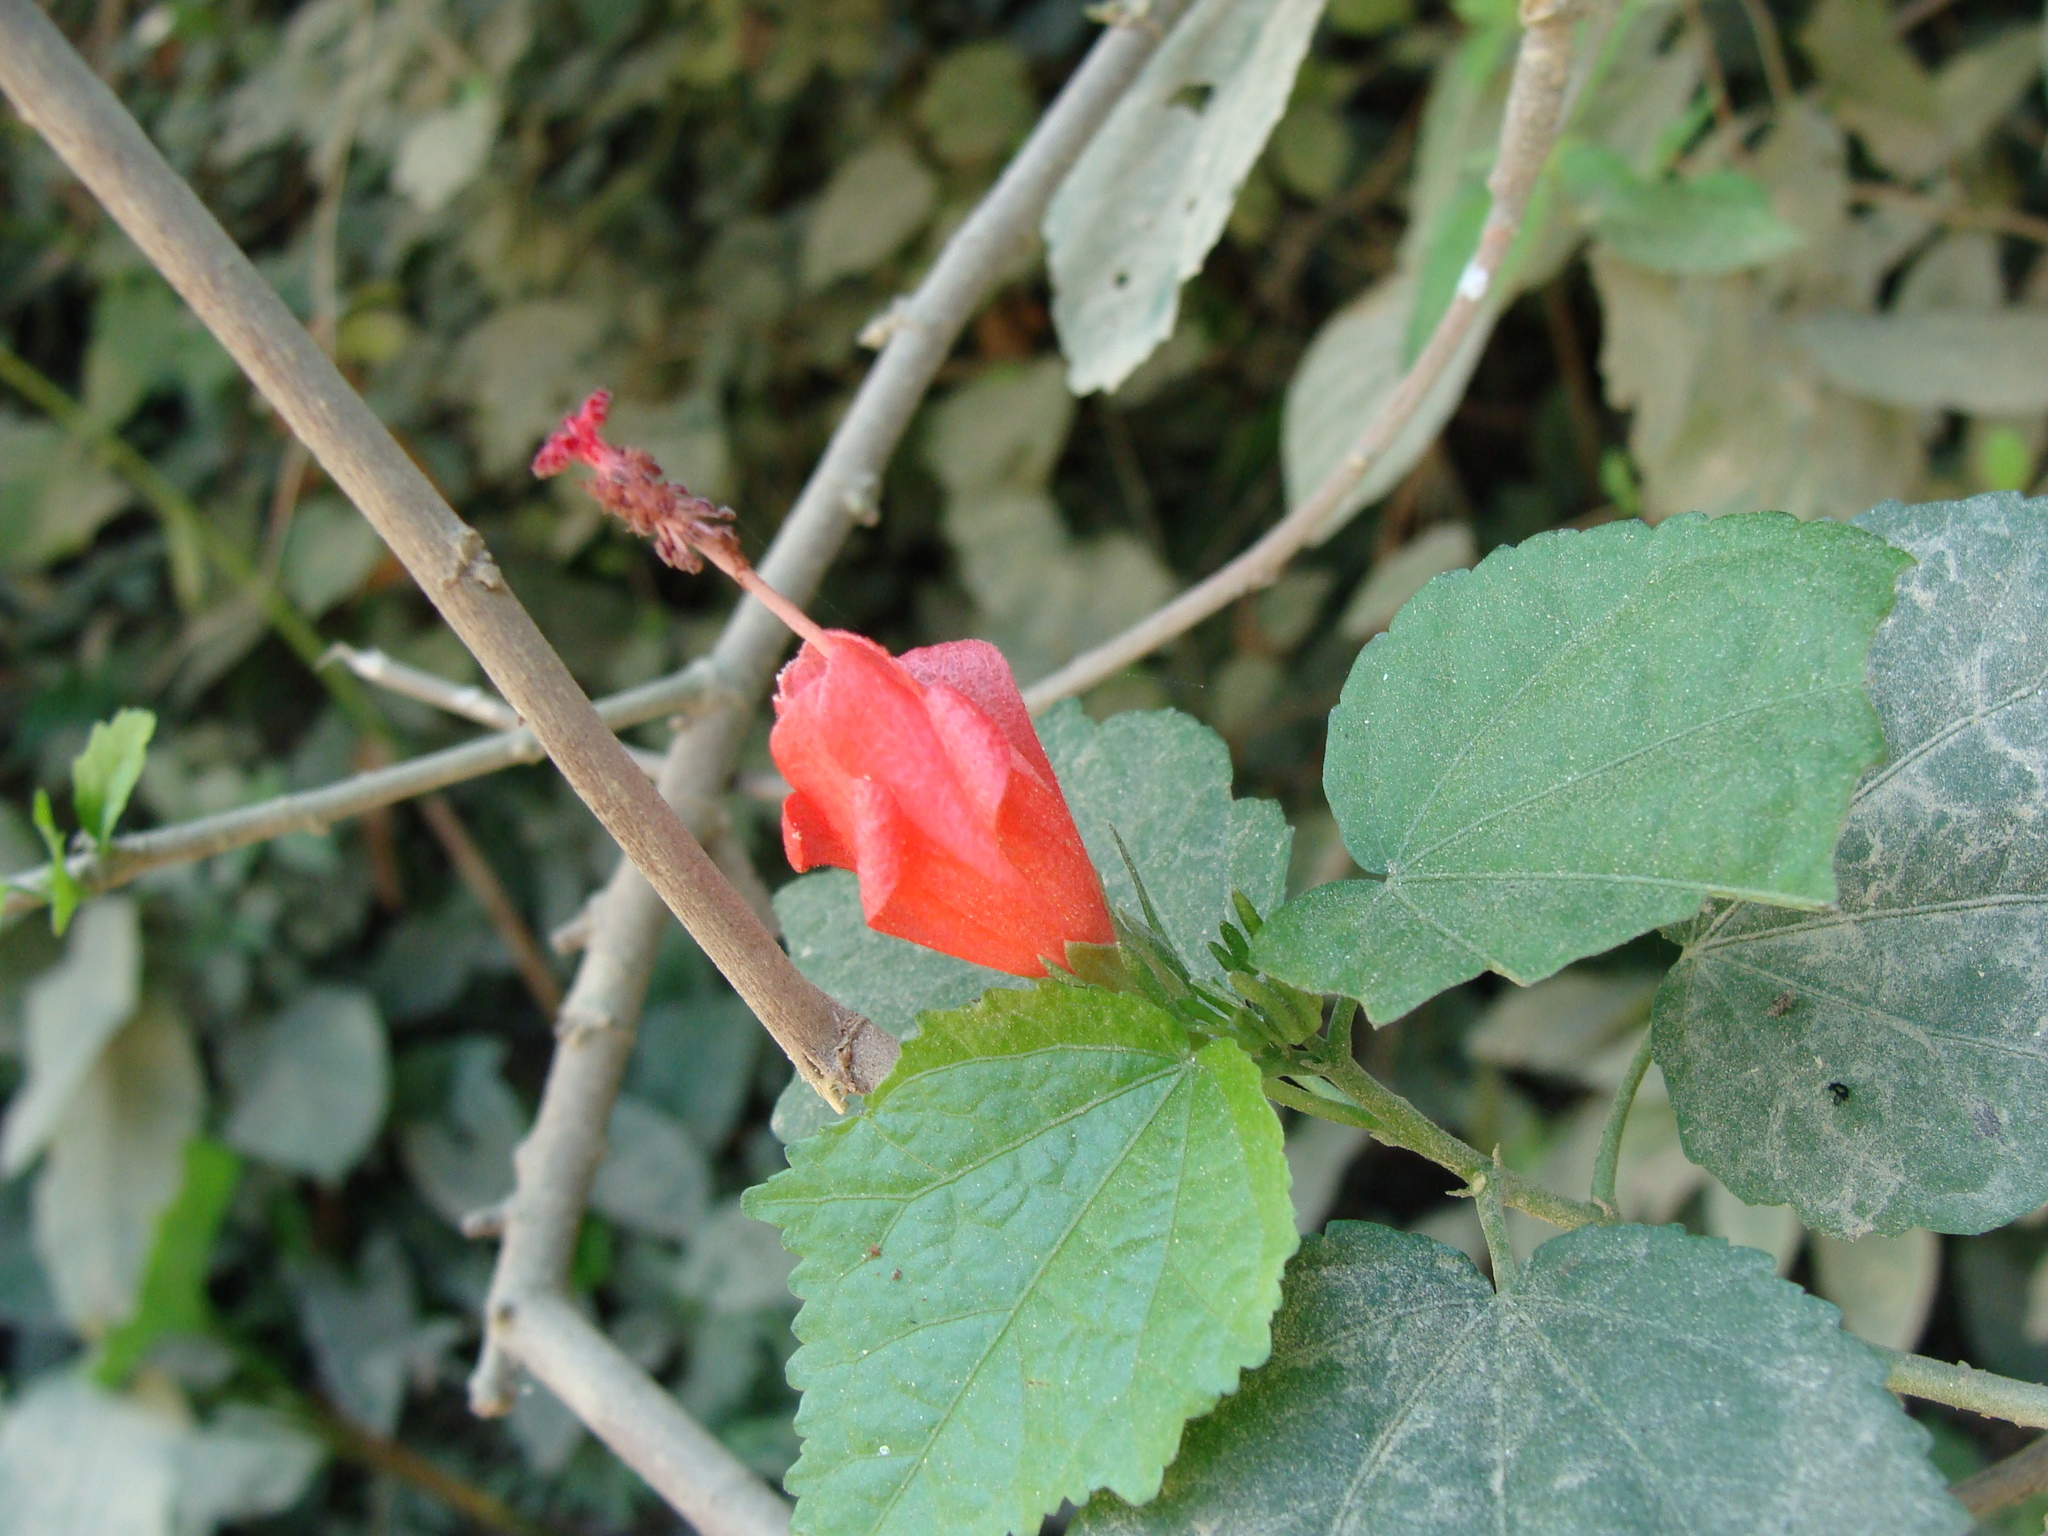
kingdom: Plantae
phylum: Tracheophyta
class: Magnoliopsida
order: Malvales
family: Malvaceae
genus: Malvaviscus
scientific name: Malvaviscus arboreus
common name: Wax mallow
